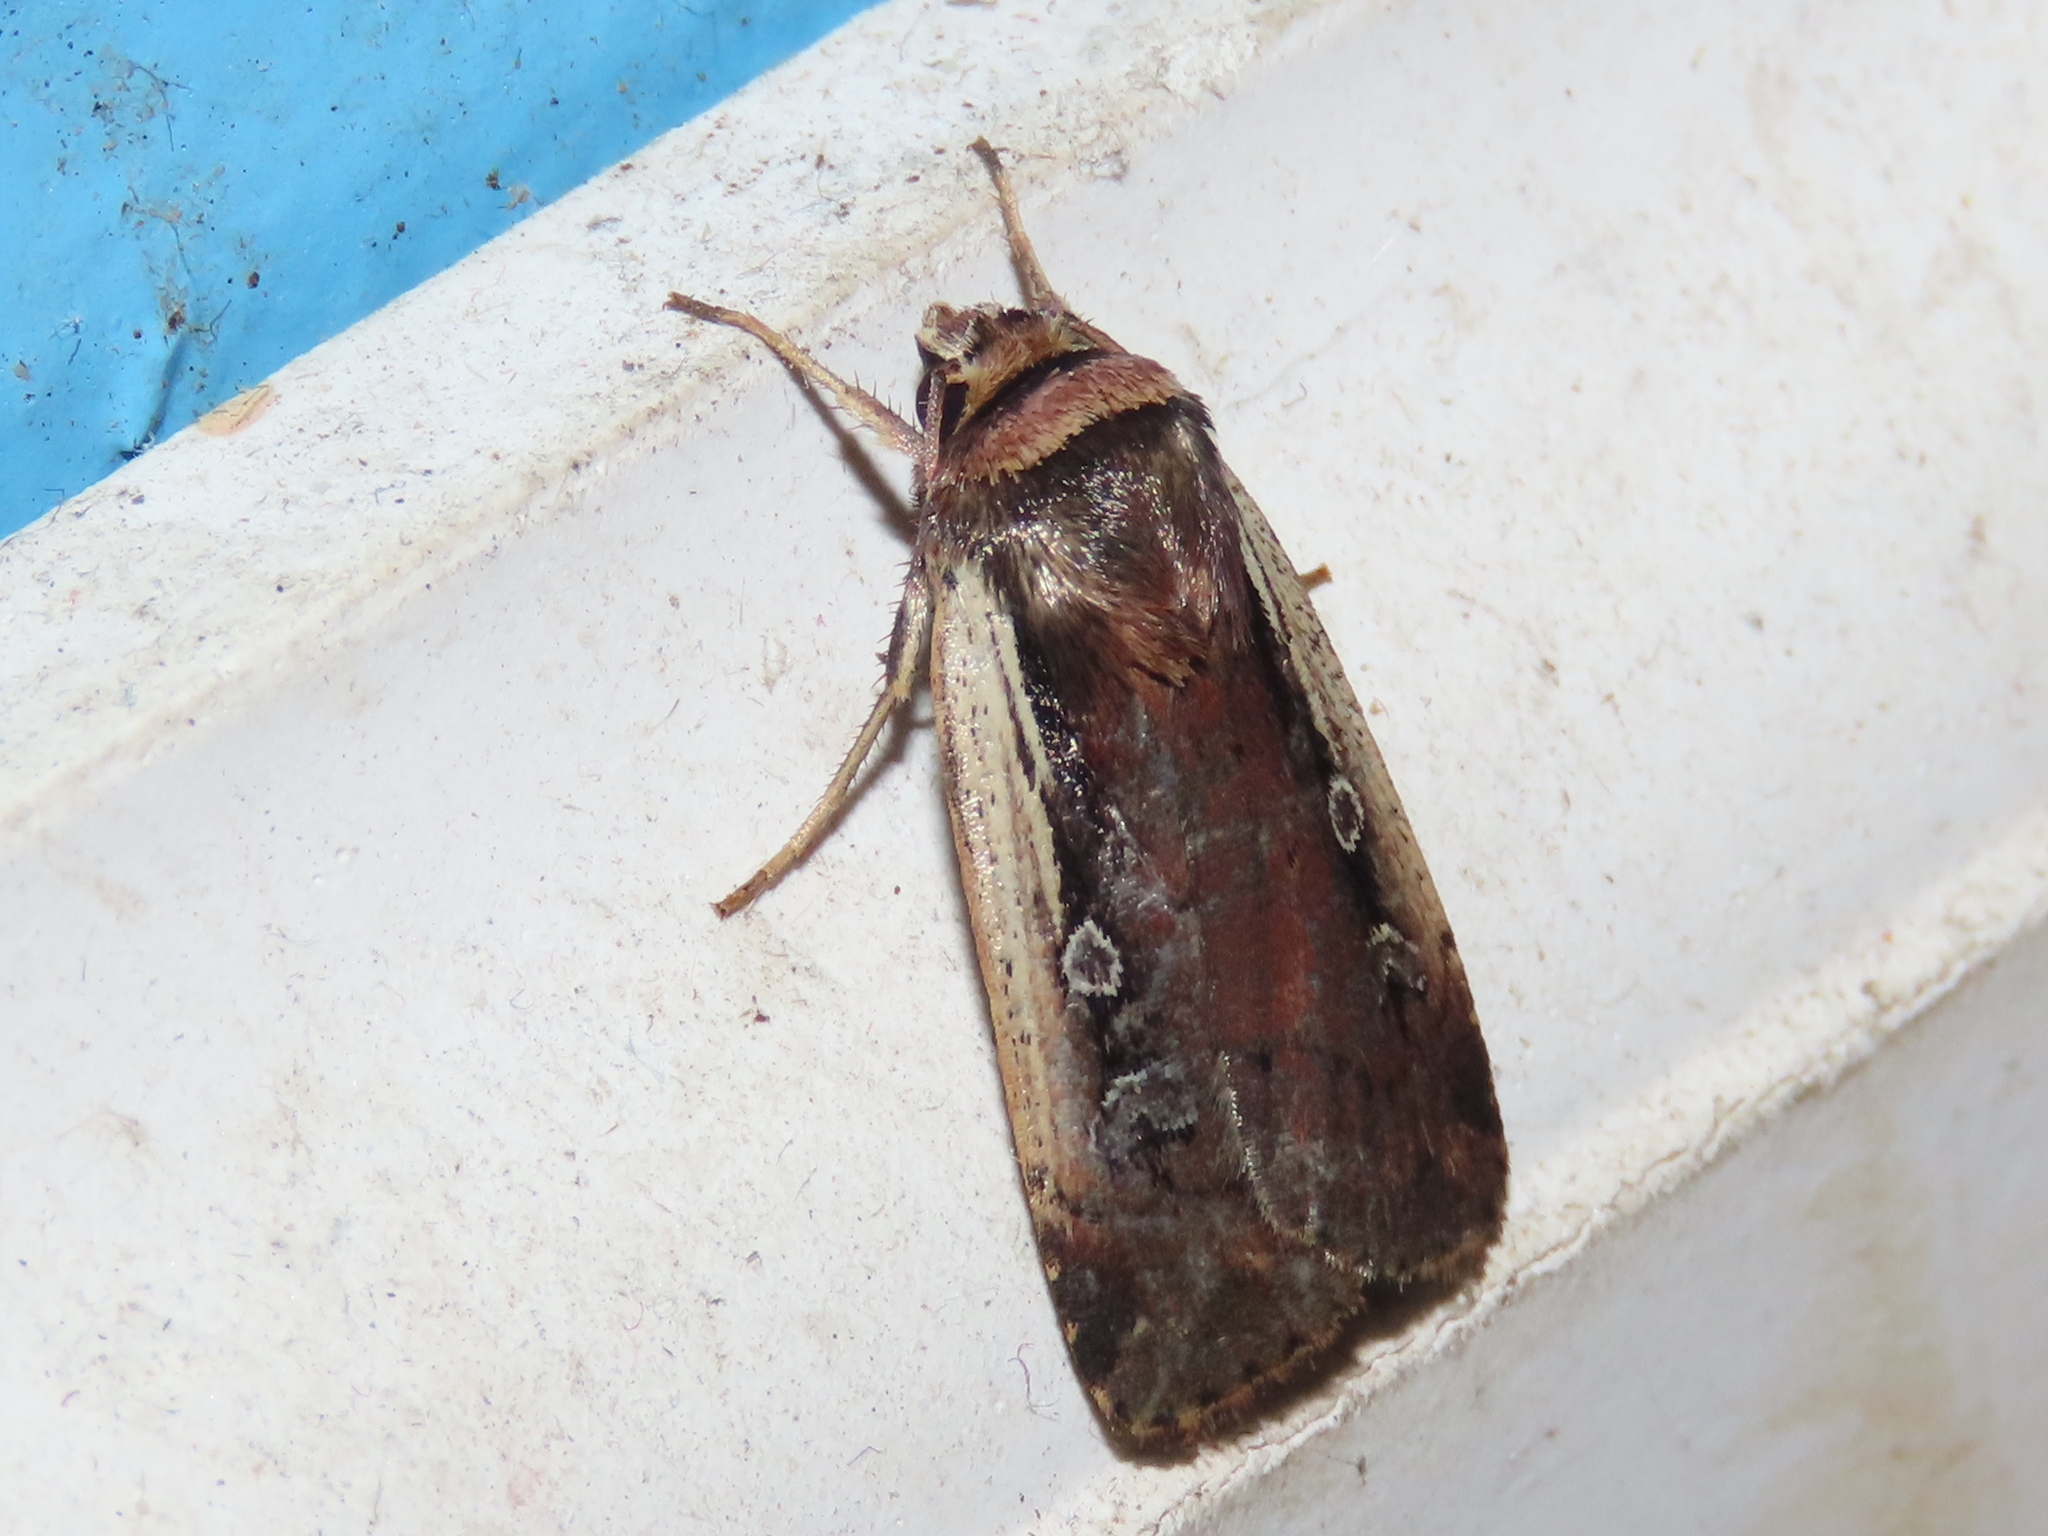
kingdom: Animalia
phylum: Arthropoda
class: Insecta
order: Lepidoptera
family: Noctuidae
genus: Ochropleura
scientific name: Ochropleura implecta
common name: Flame-shouldered dart
